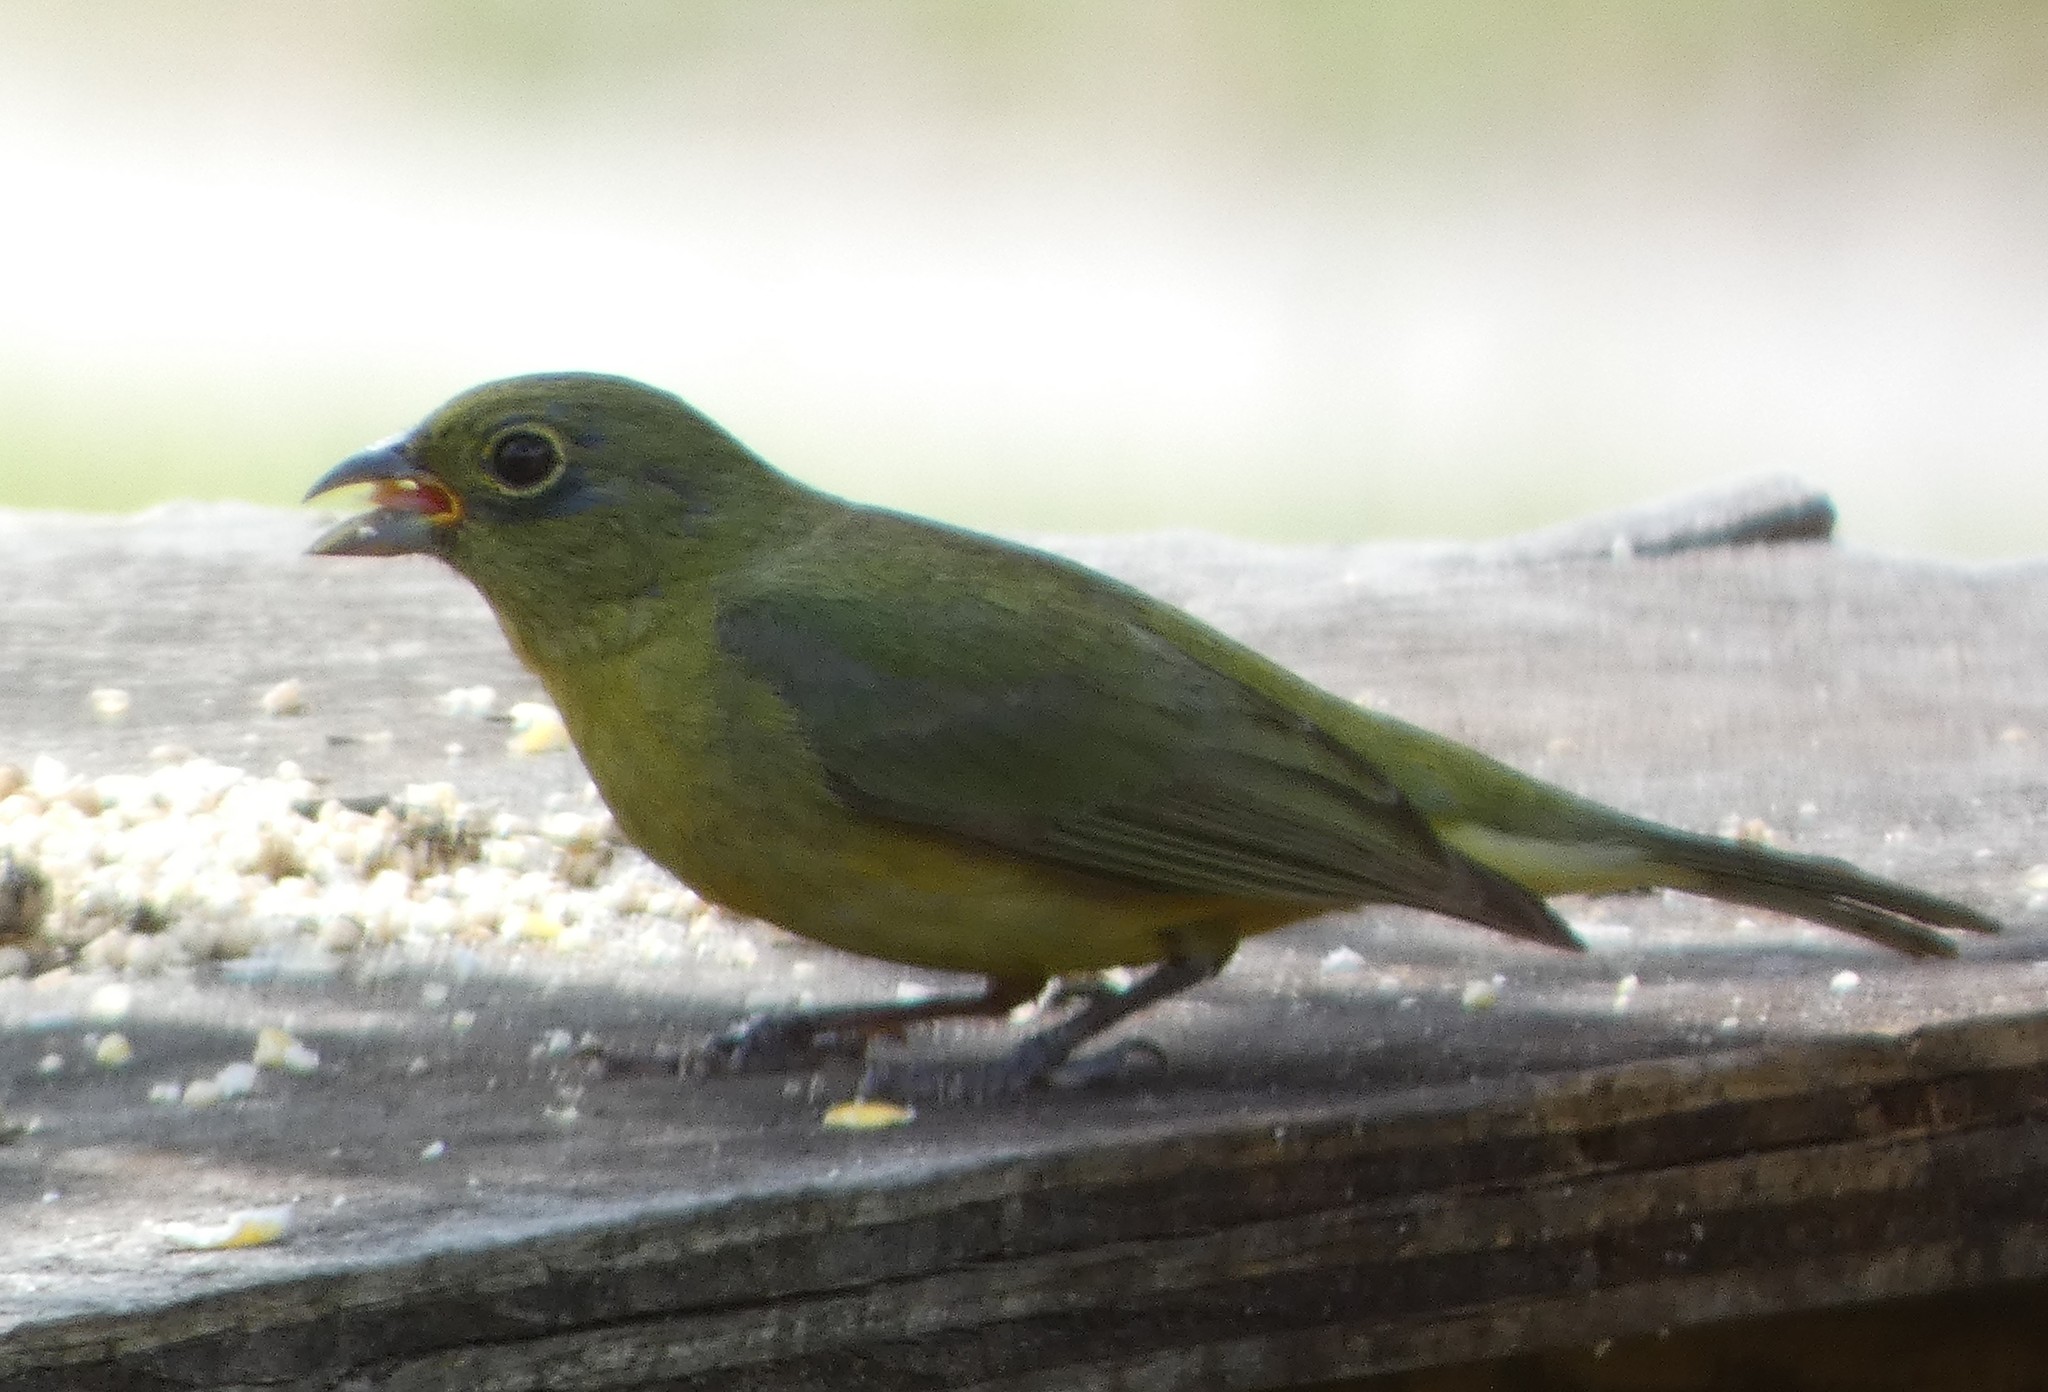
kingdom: Animalia
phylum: Chordata
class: Aves
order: Passeriformes
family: Cardinalidae
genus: Passerina
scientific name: Passerina ciris
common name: Painted bunting
